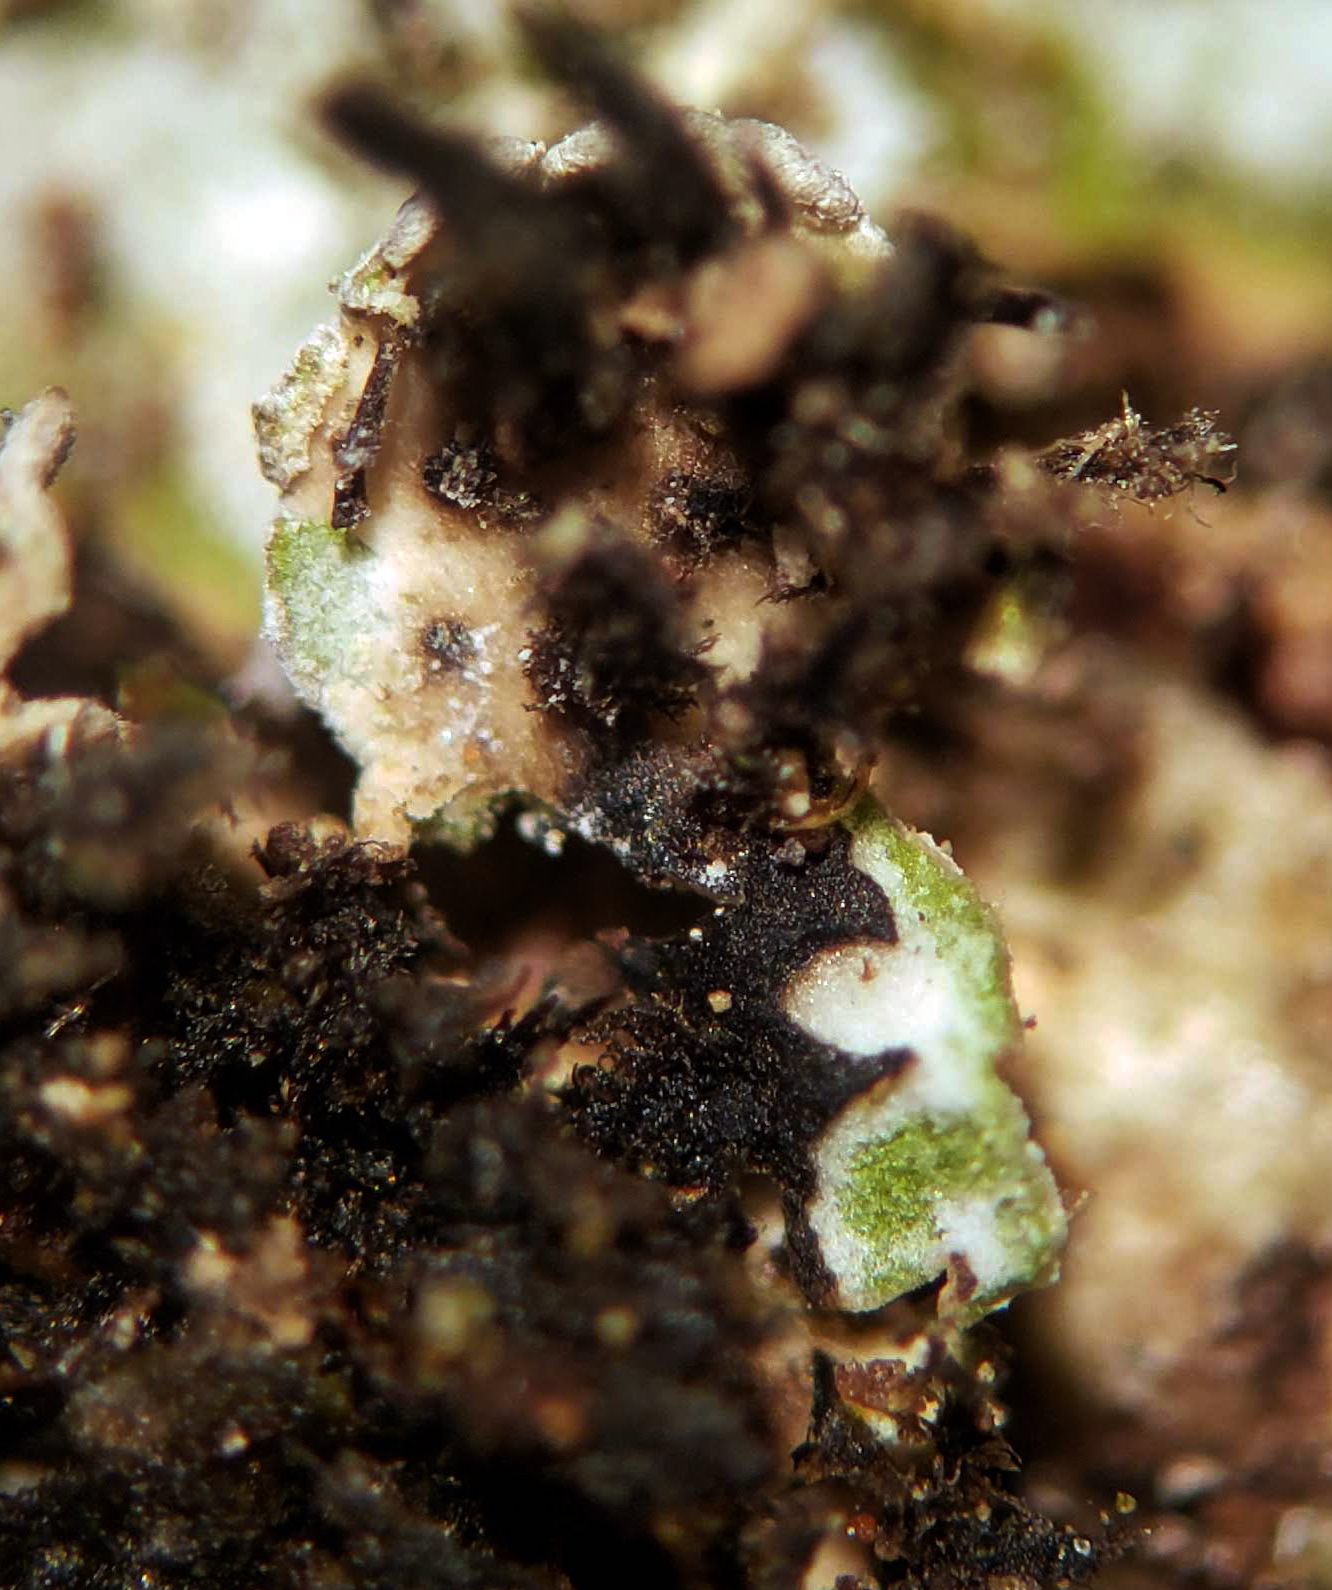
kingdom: Fungi
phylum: Ascomycota
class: Lecanoromycetes
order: Caliciales
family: Physciaceae
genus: Physconia
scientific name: Physconia detersa
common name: Bottlebrush frost lichen
